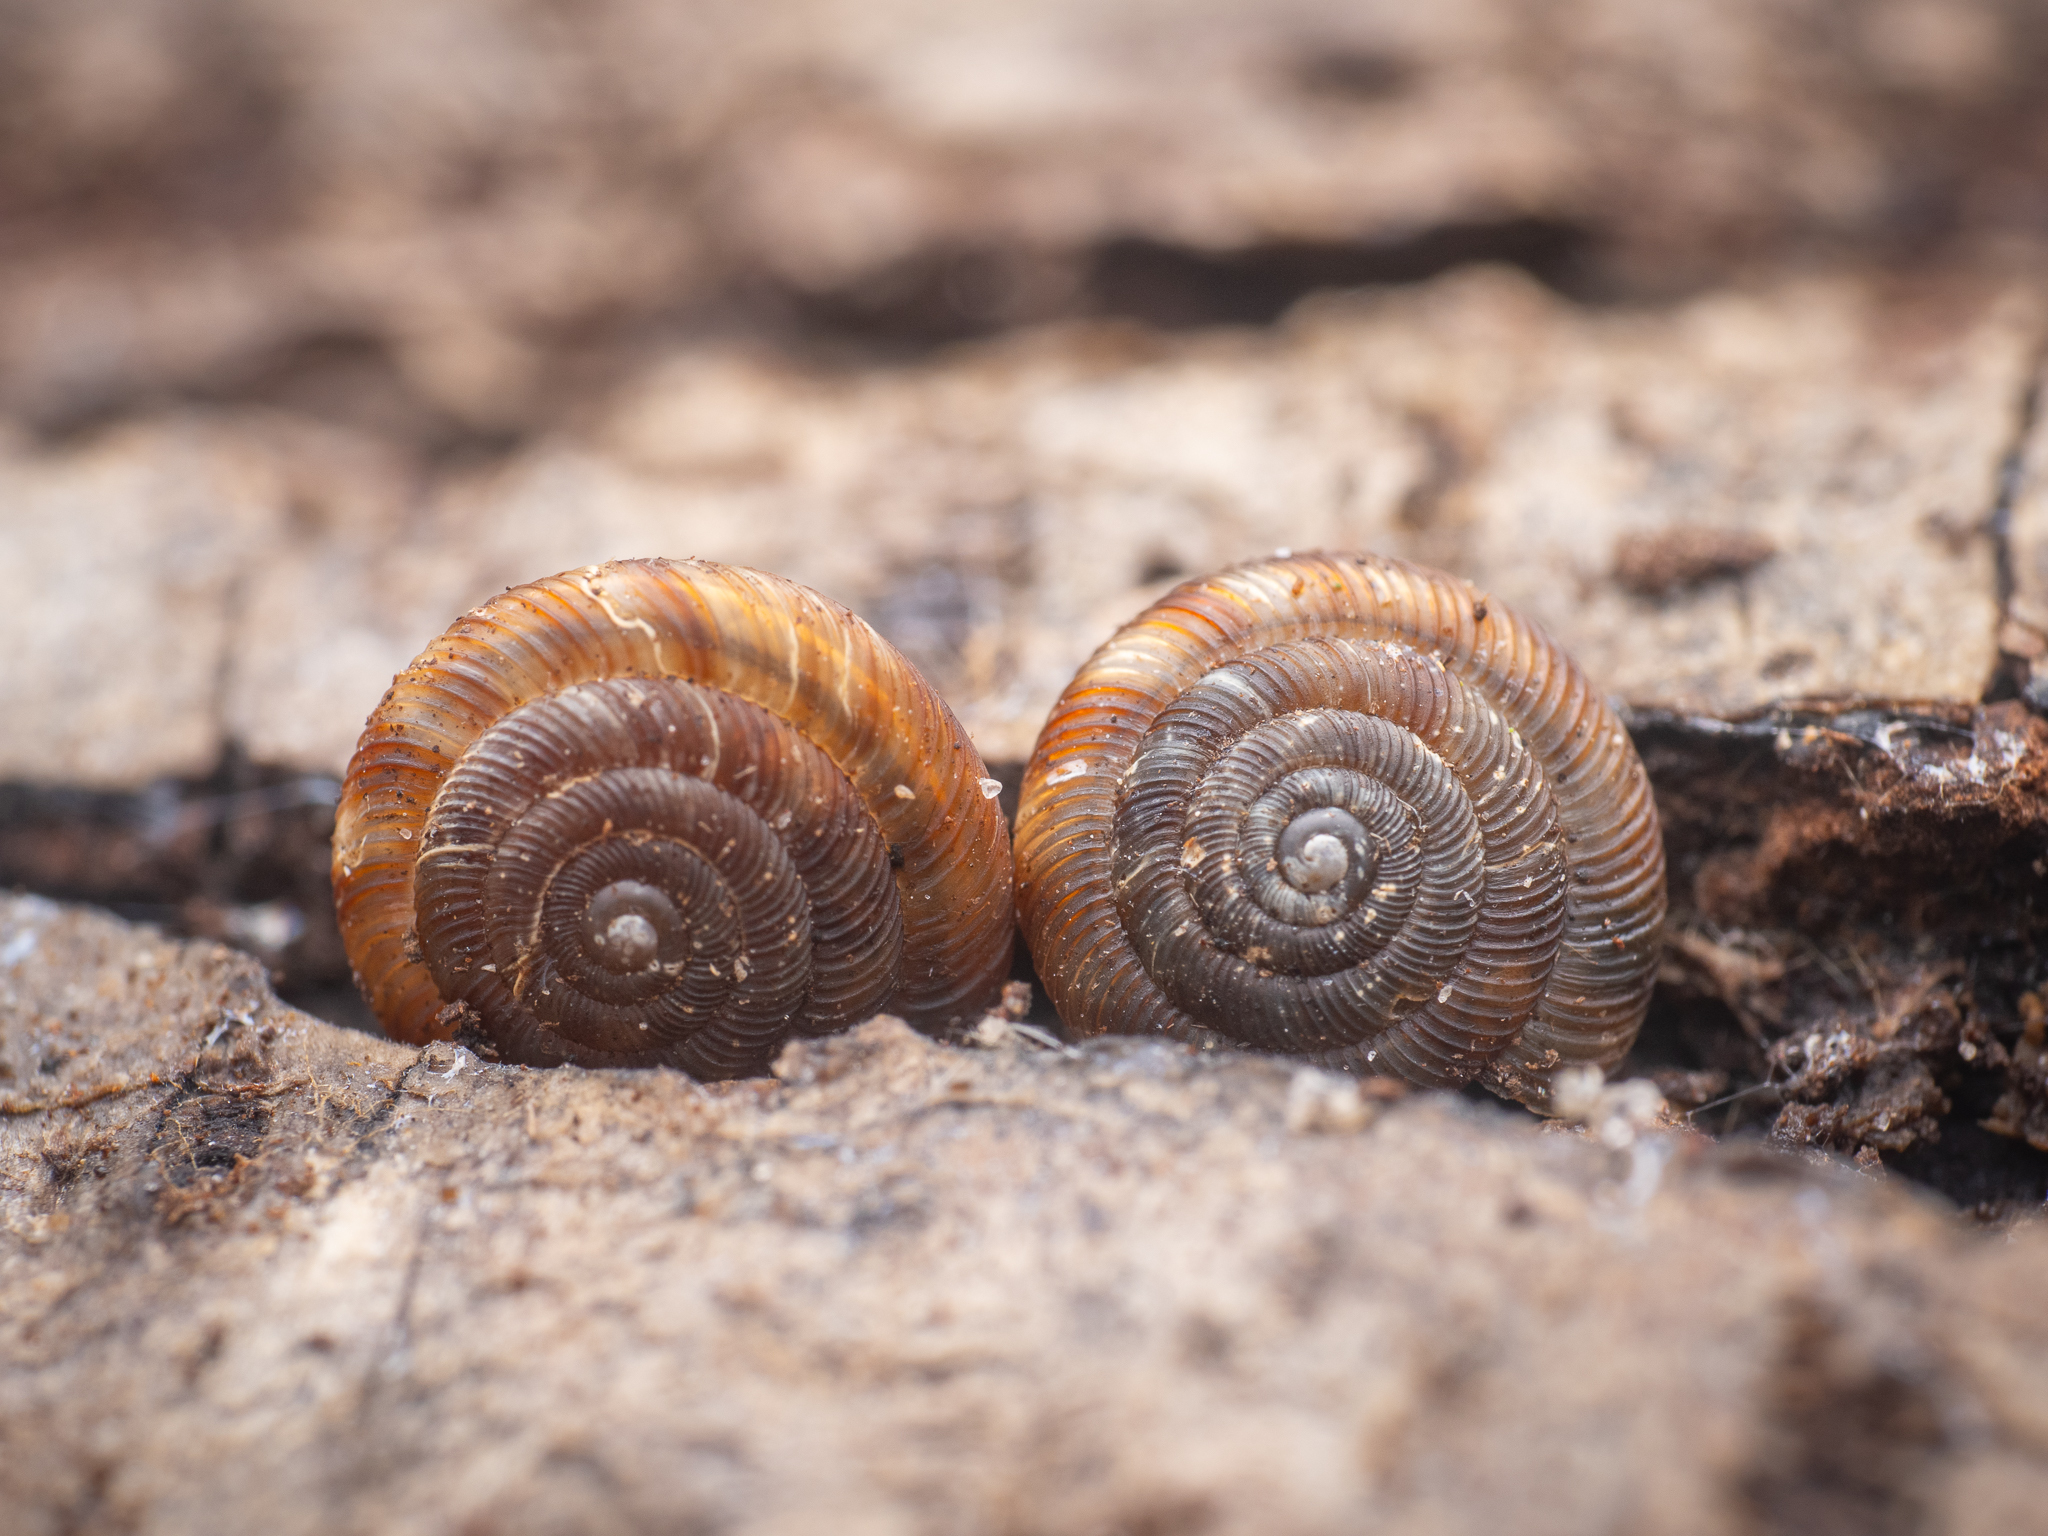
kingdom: Animalia
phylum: Mollusca
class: Gastropoda
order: Stylommatophora
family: Discidae
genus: Discus
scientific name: Discus rotundatus
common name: Rounded snail
